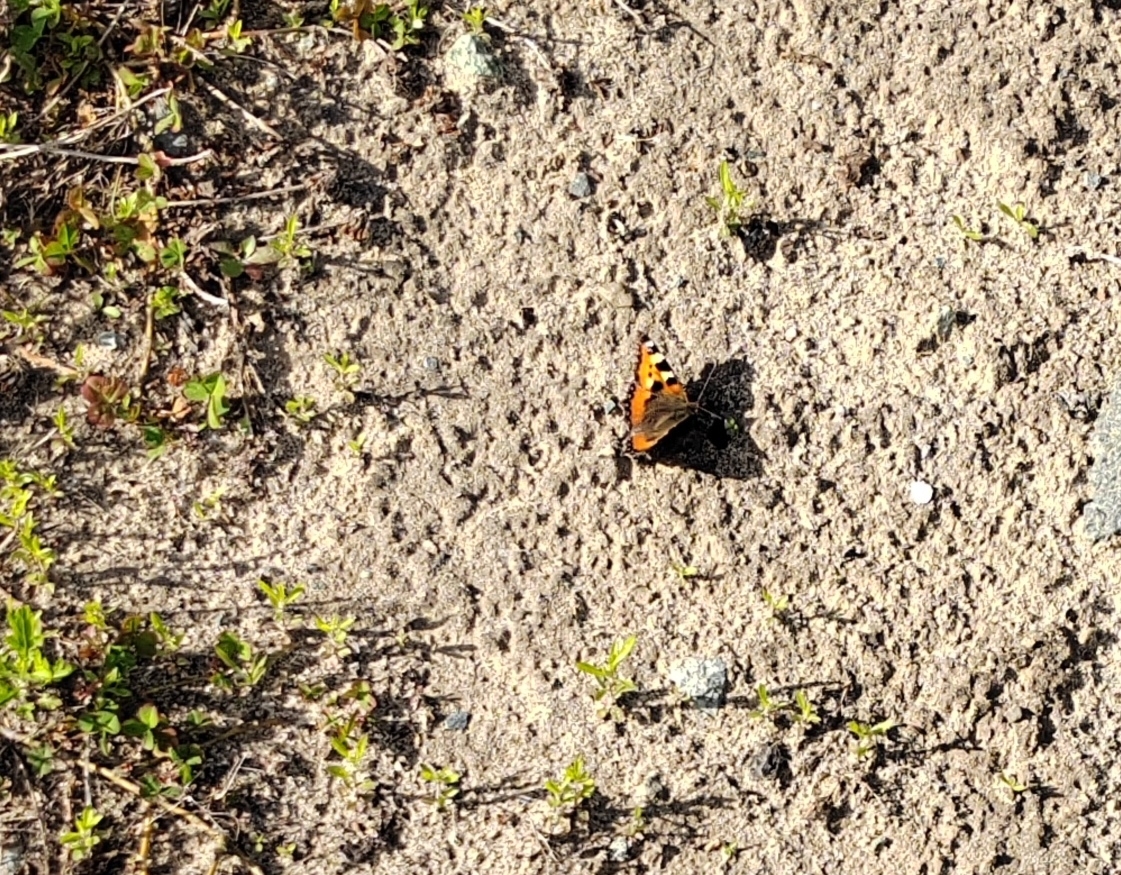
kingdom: Animalia
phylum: Arthropoda
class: Insecta
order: Lepidoptera
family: Nymphalidae
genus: Aglais
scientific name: Aglais urticae
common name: Small tortoiseshell
